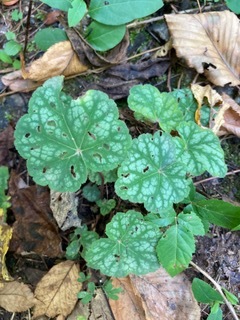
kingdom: Plantae
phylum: Tracheophyta
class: Magnoliopsida
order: Saxifragales
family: Saxifragaceae
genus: Heuchera
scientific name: Heuchera americana
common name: Alumroot
